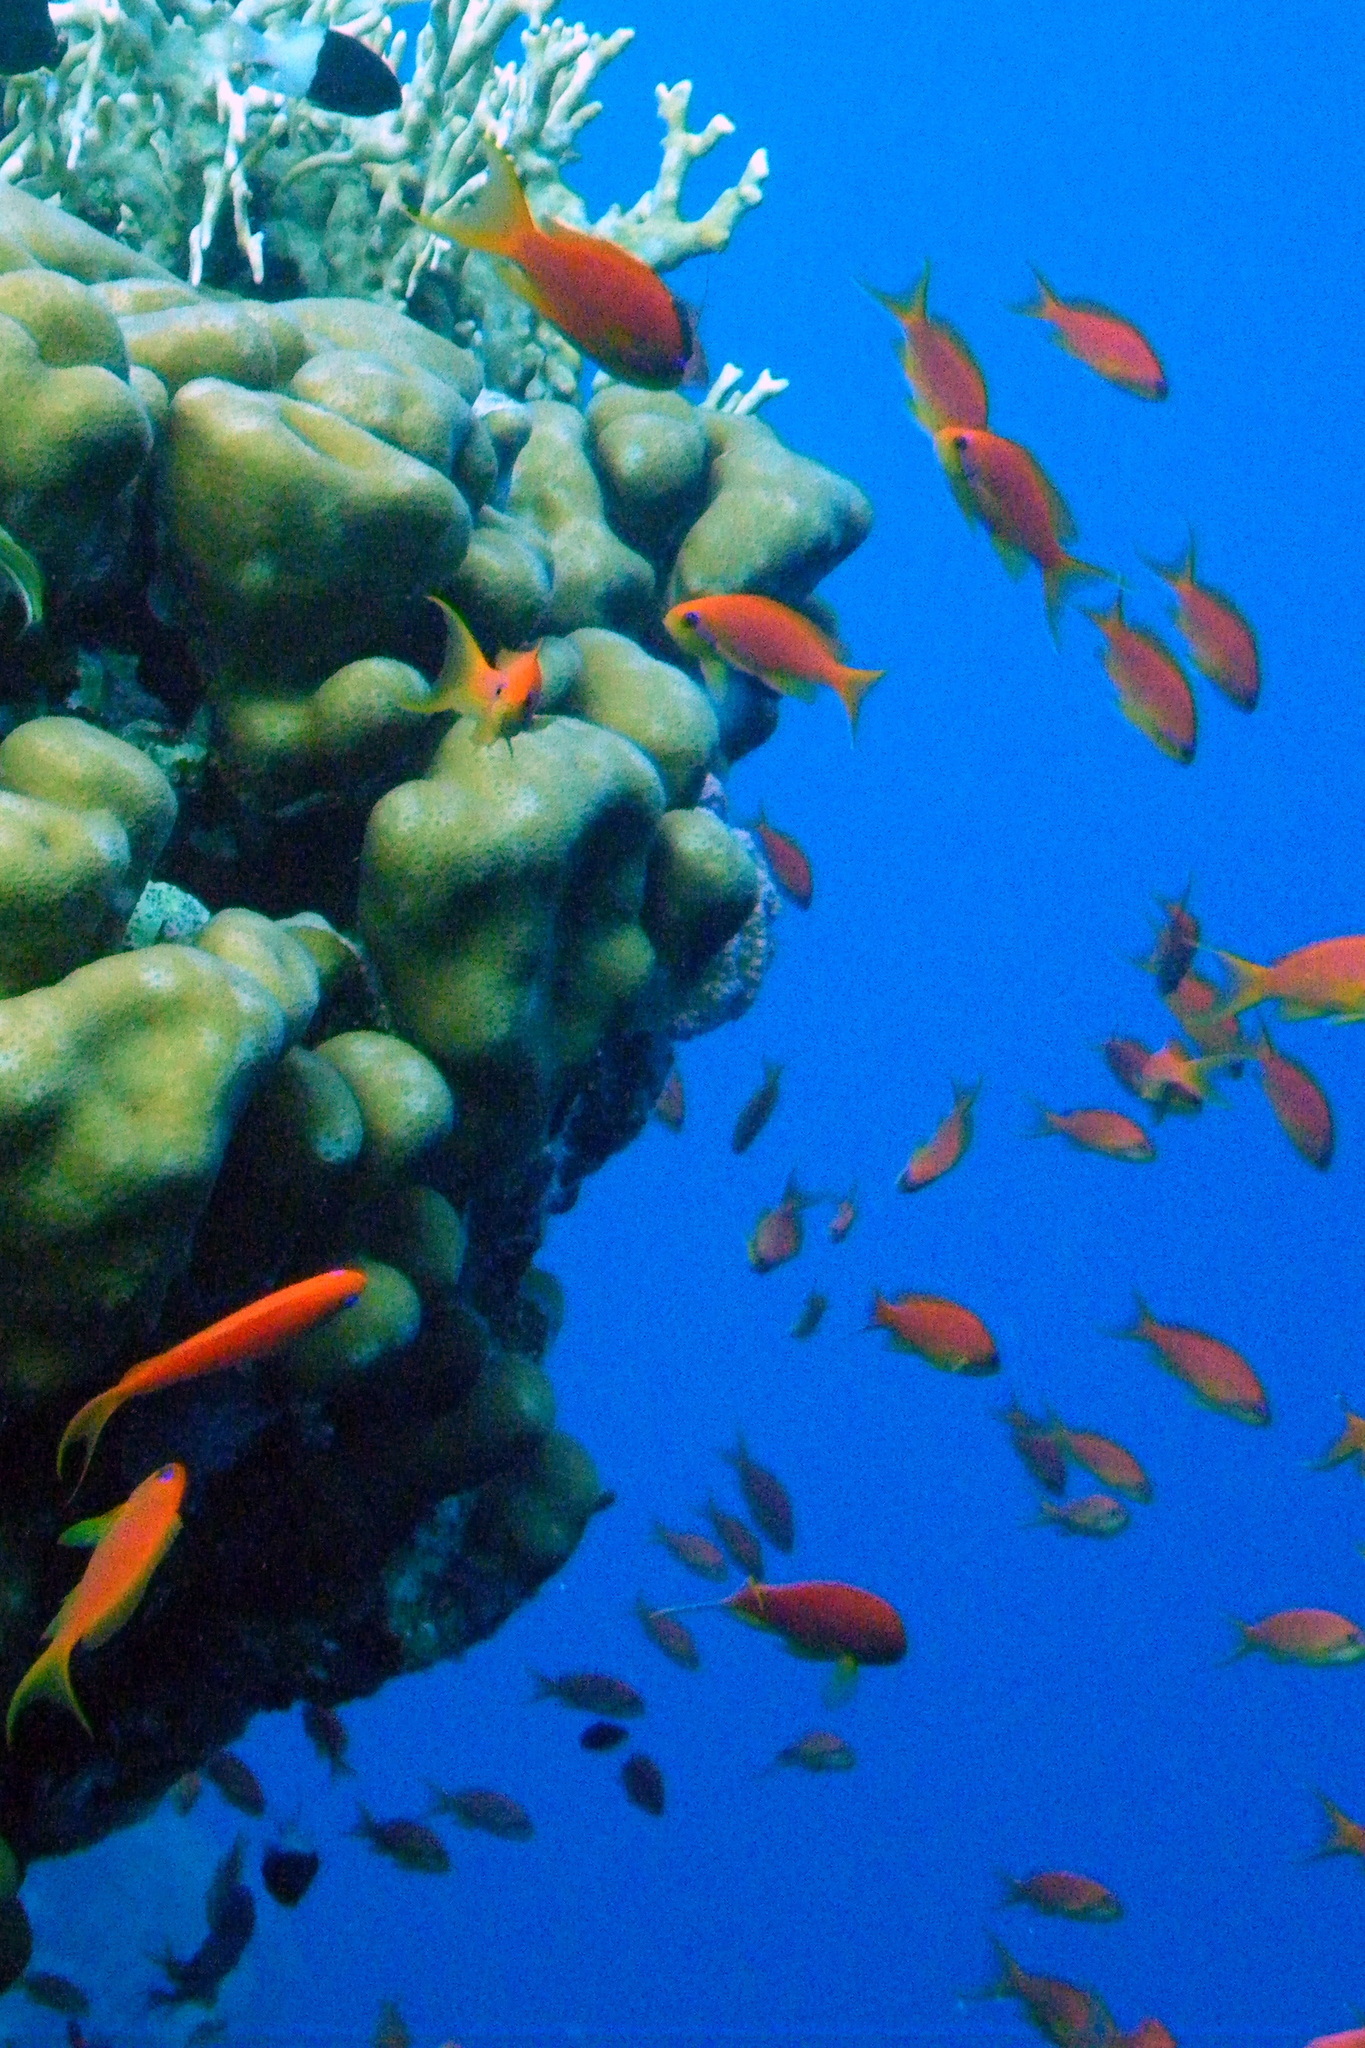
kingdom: Animalia
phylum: Chordata
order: Perciformes
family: Serranidae
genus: Pseudanthias
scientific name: Pseudanthias squamipinnis
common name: Scalefin anthias
